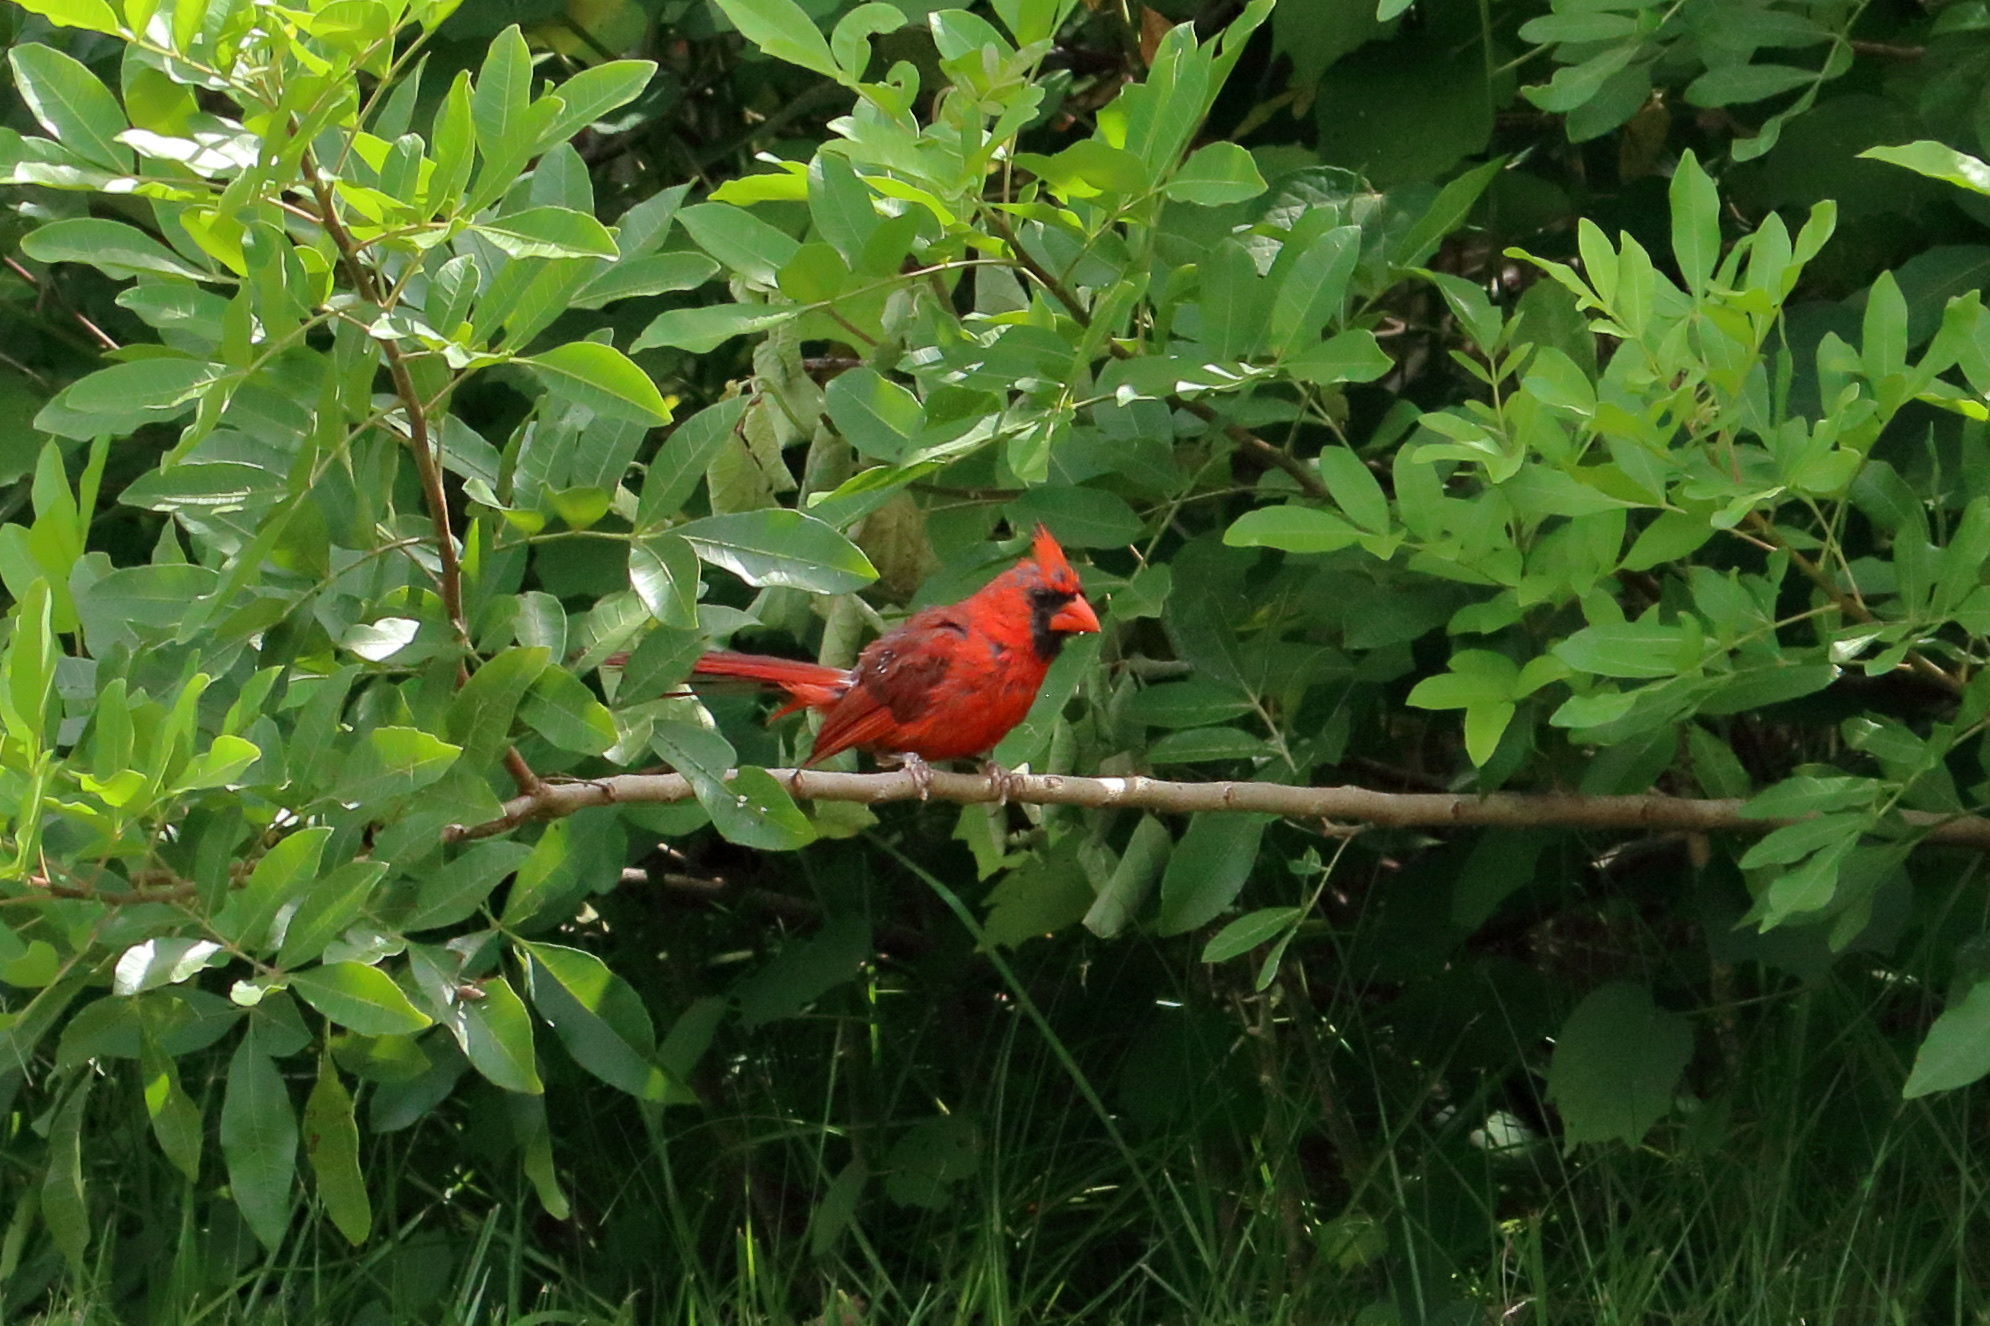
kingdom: Animalia
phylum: Chordata
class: Aves
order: Passeriformes
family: Cardinalidae
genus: Cardinalis
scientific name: Cardinalis cardinalis
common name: Northern cardinal
